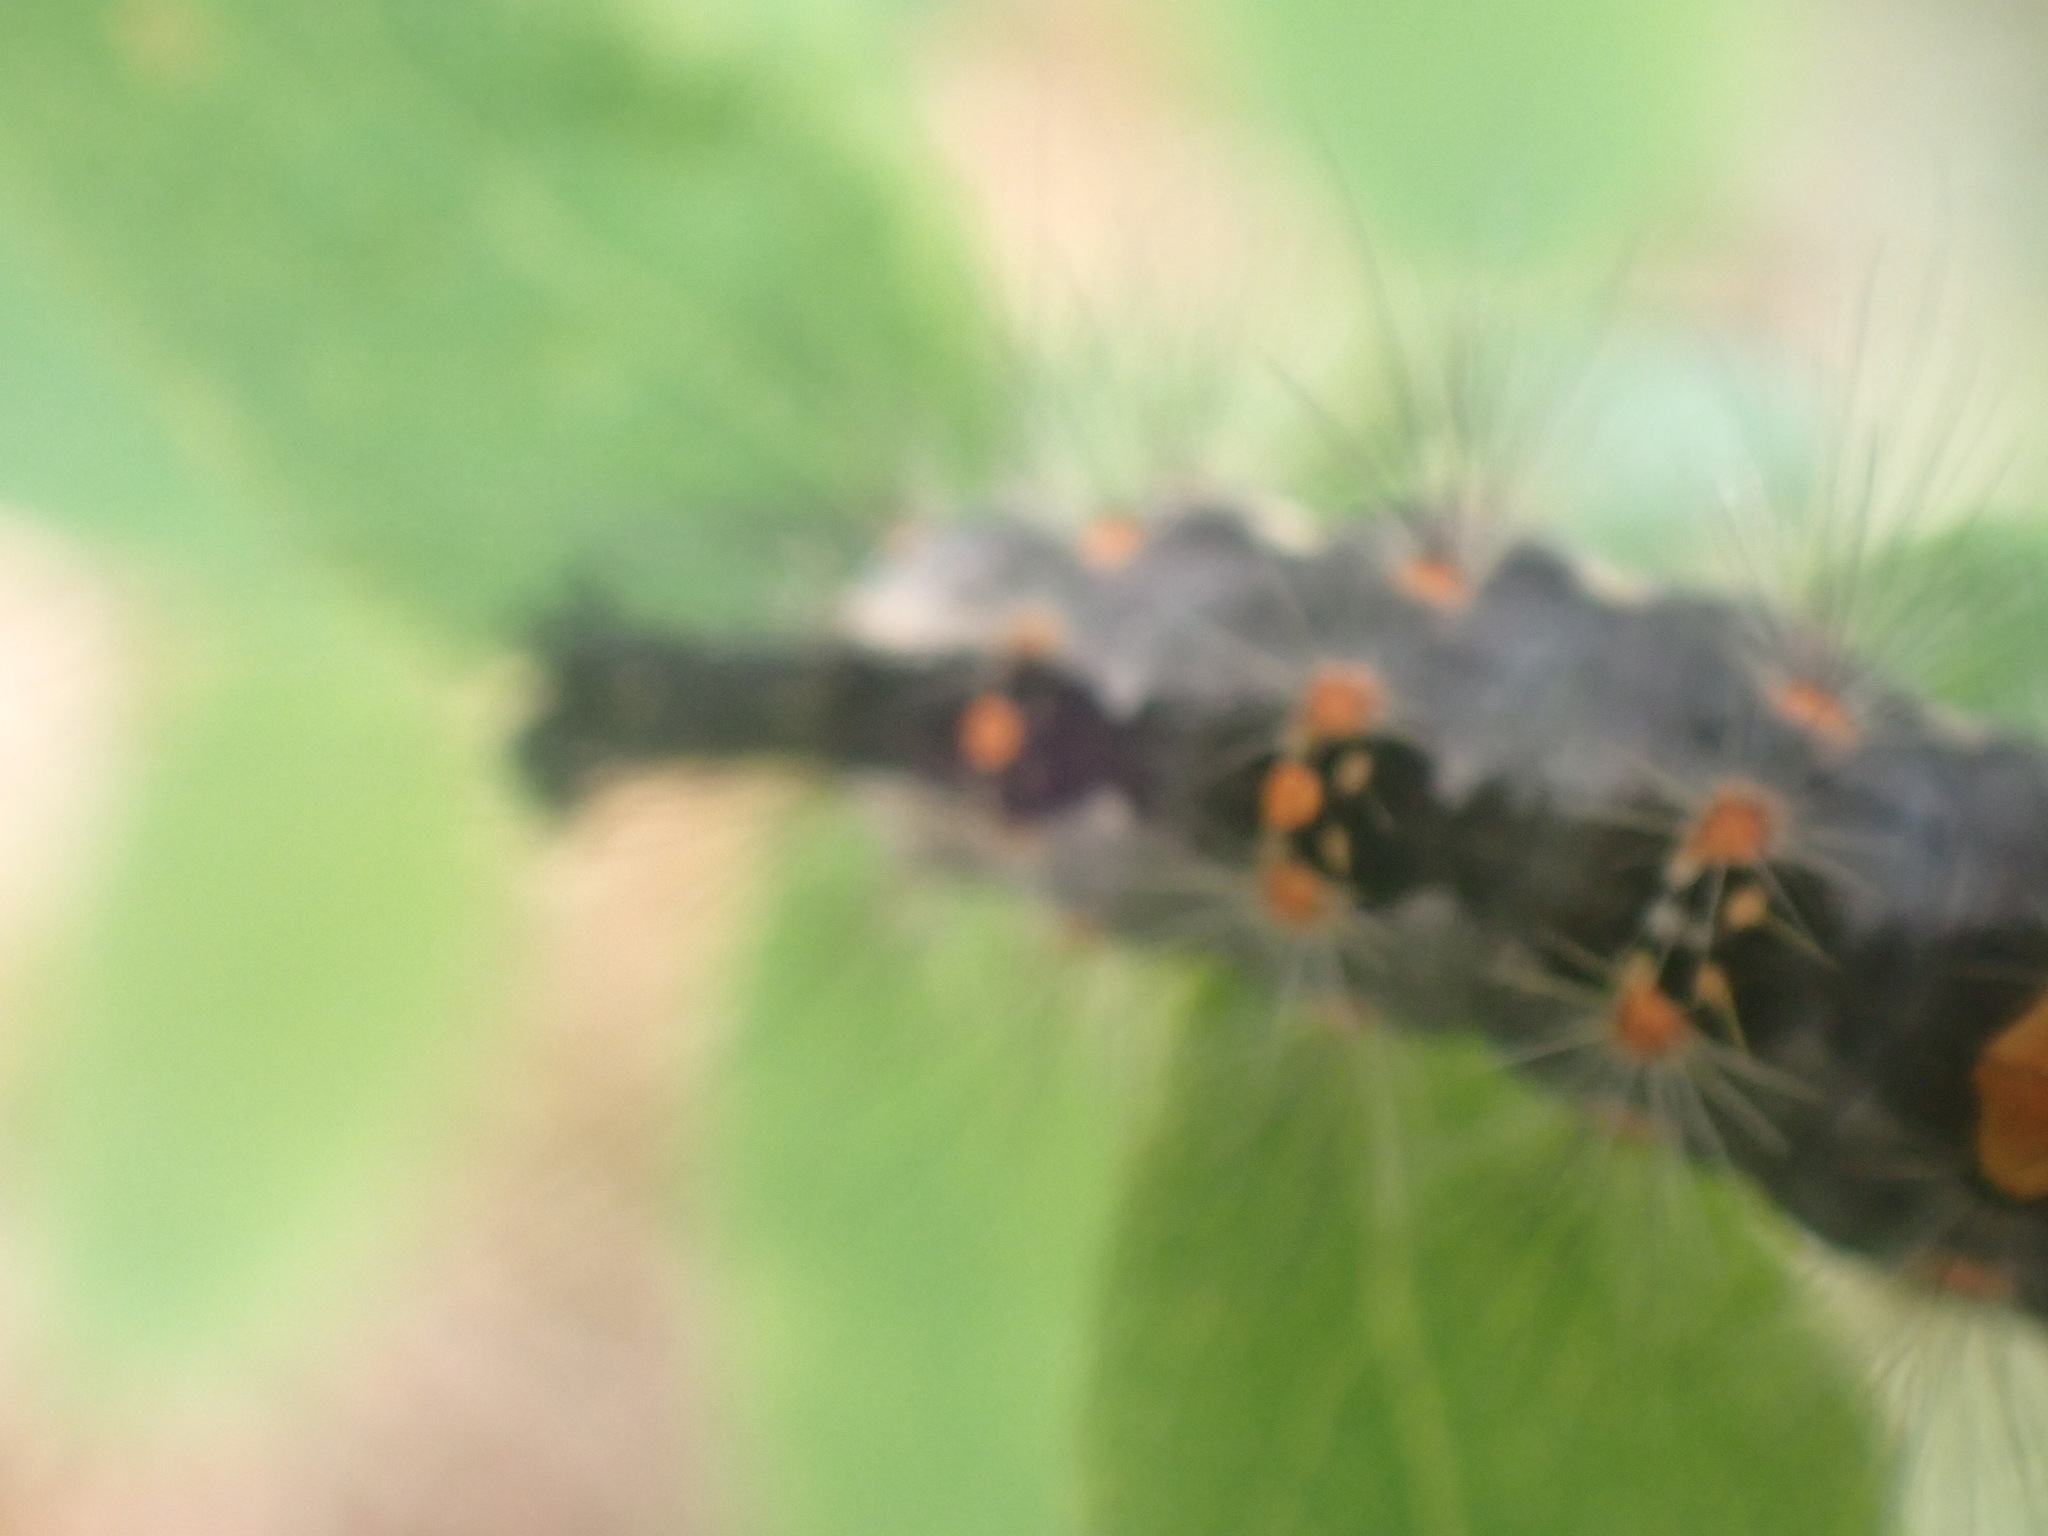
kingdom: Animalia
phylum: Arthropoda
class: Insecta
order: Lepidoptera
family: Erebidae
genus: Orgyia
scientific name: Orgyia antiqua
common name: Vapourer
